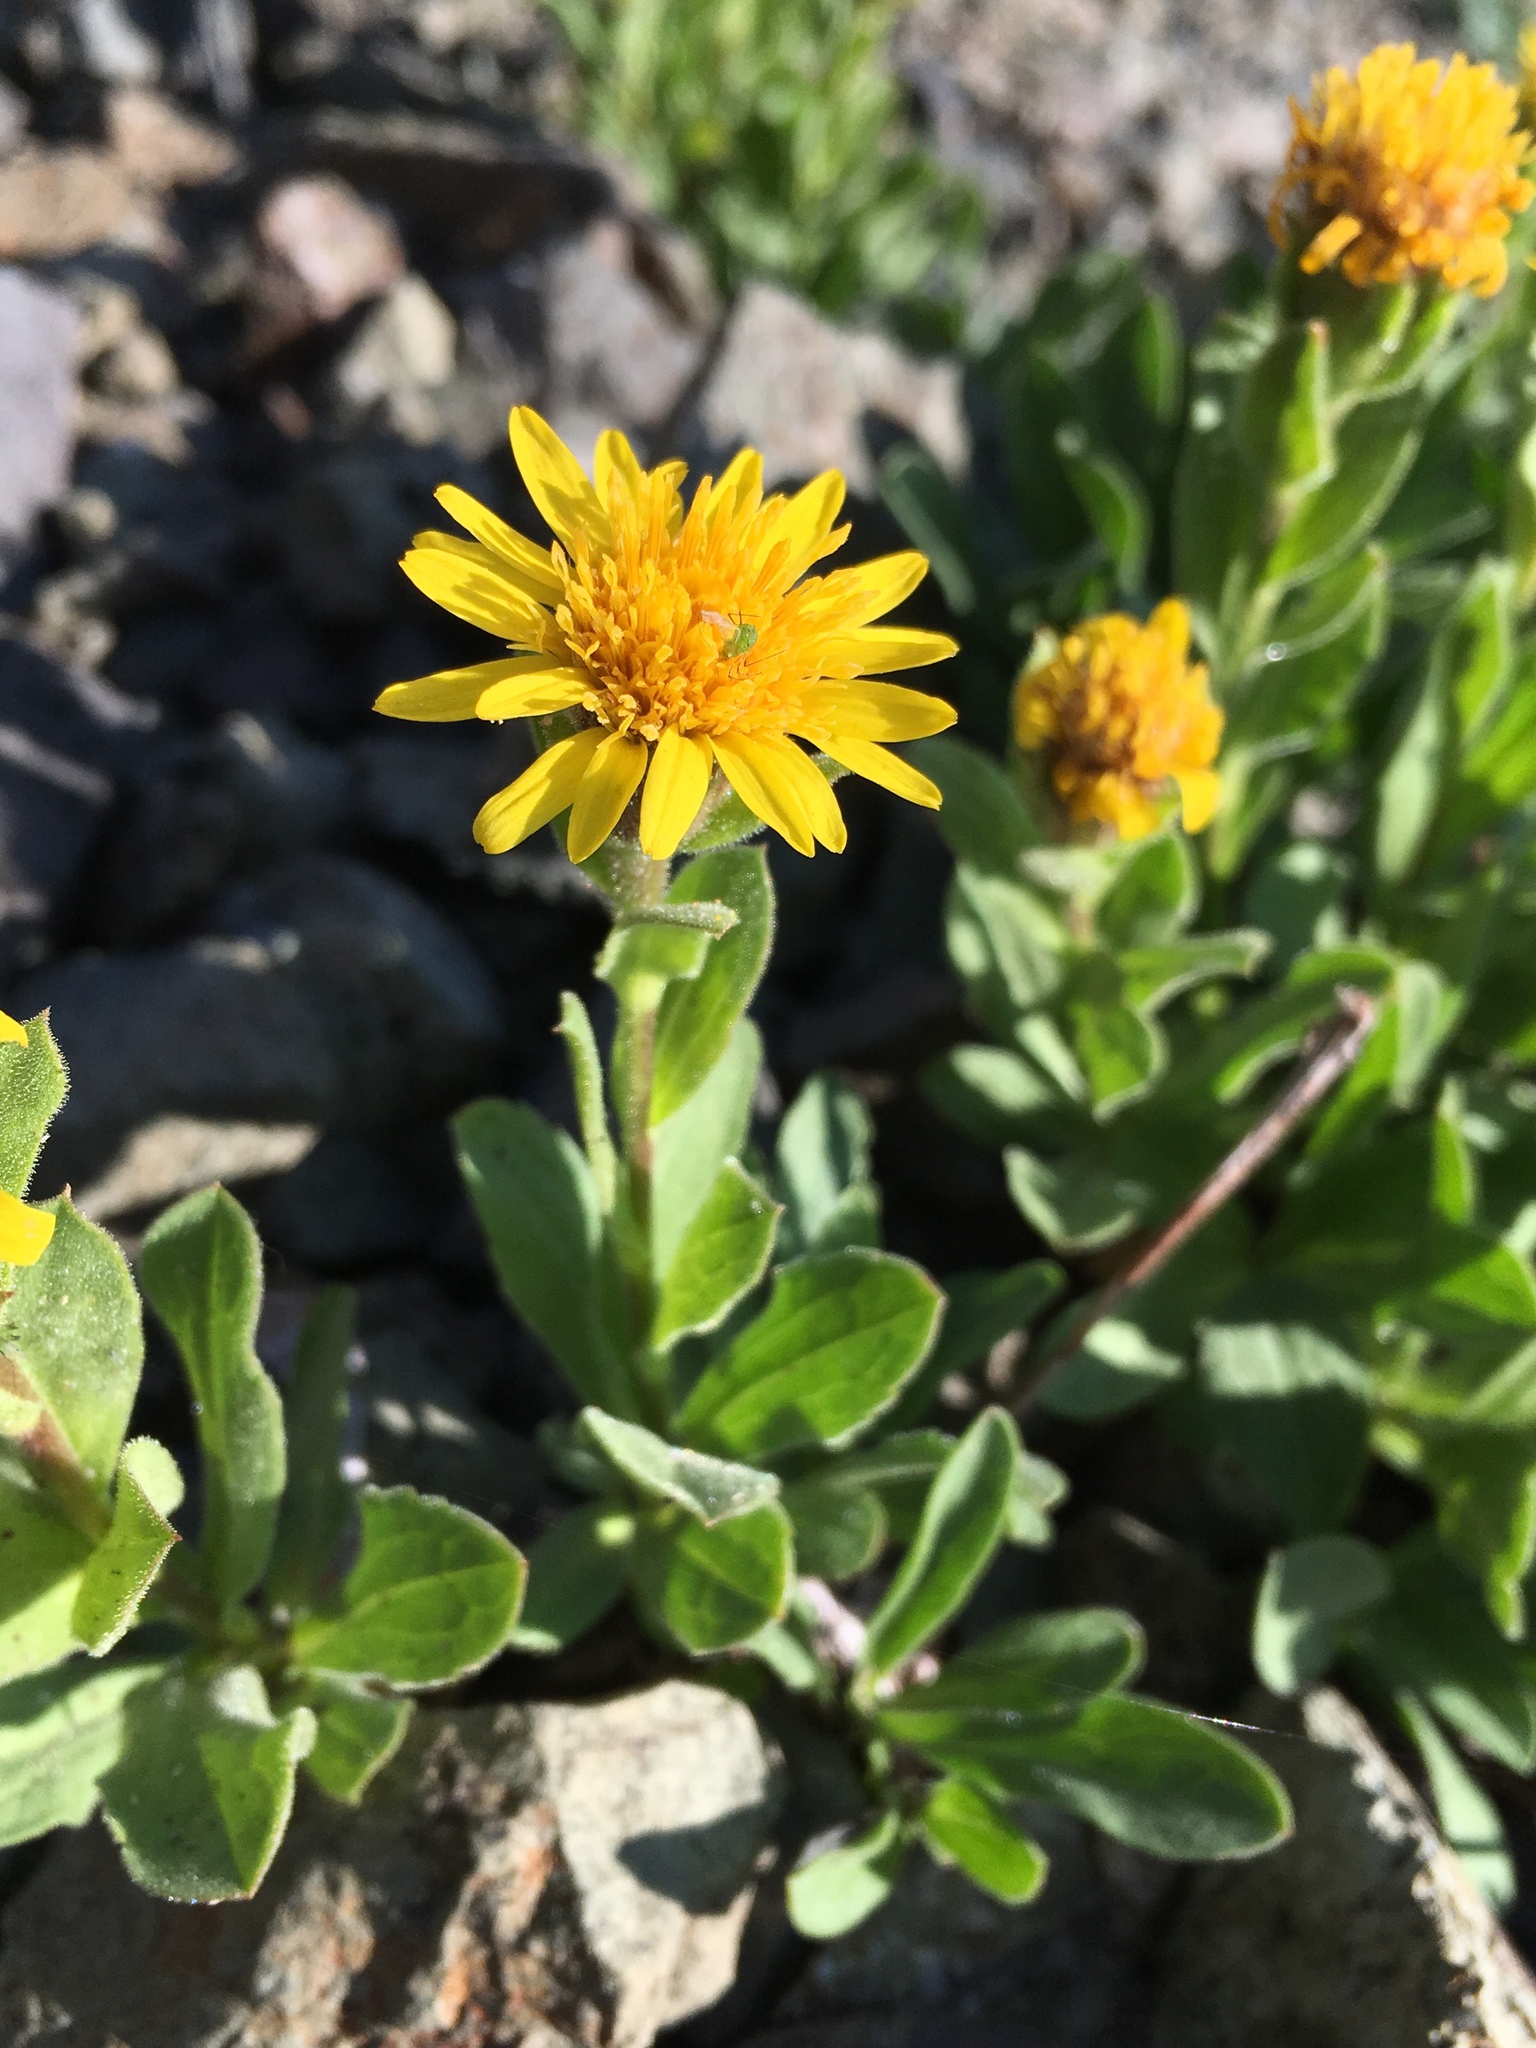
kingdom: Plantae
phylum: Tracheophyta
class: Magnoliopsida
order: Asterales
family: Asteraceae
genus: Tonestus
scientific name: Tonestus lyallii
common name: Lyall's goldenweed
